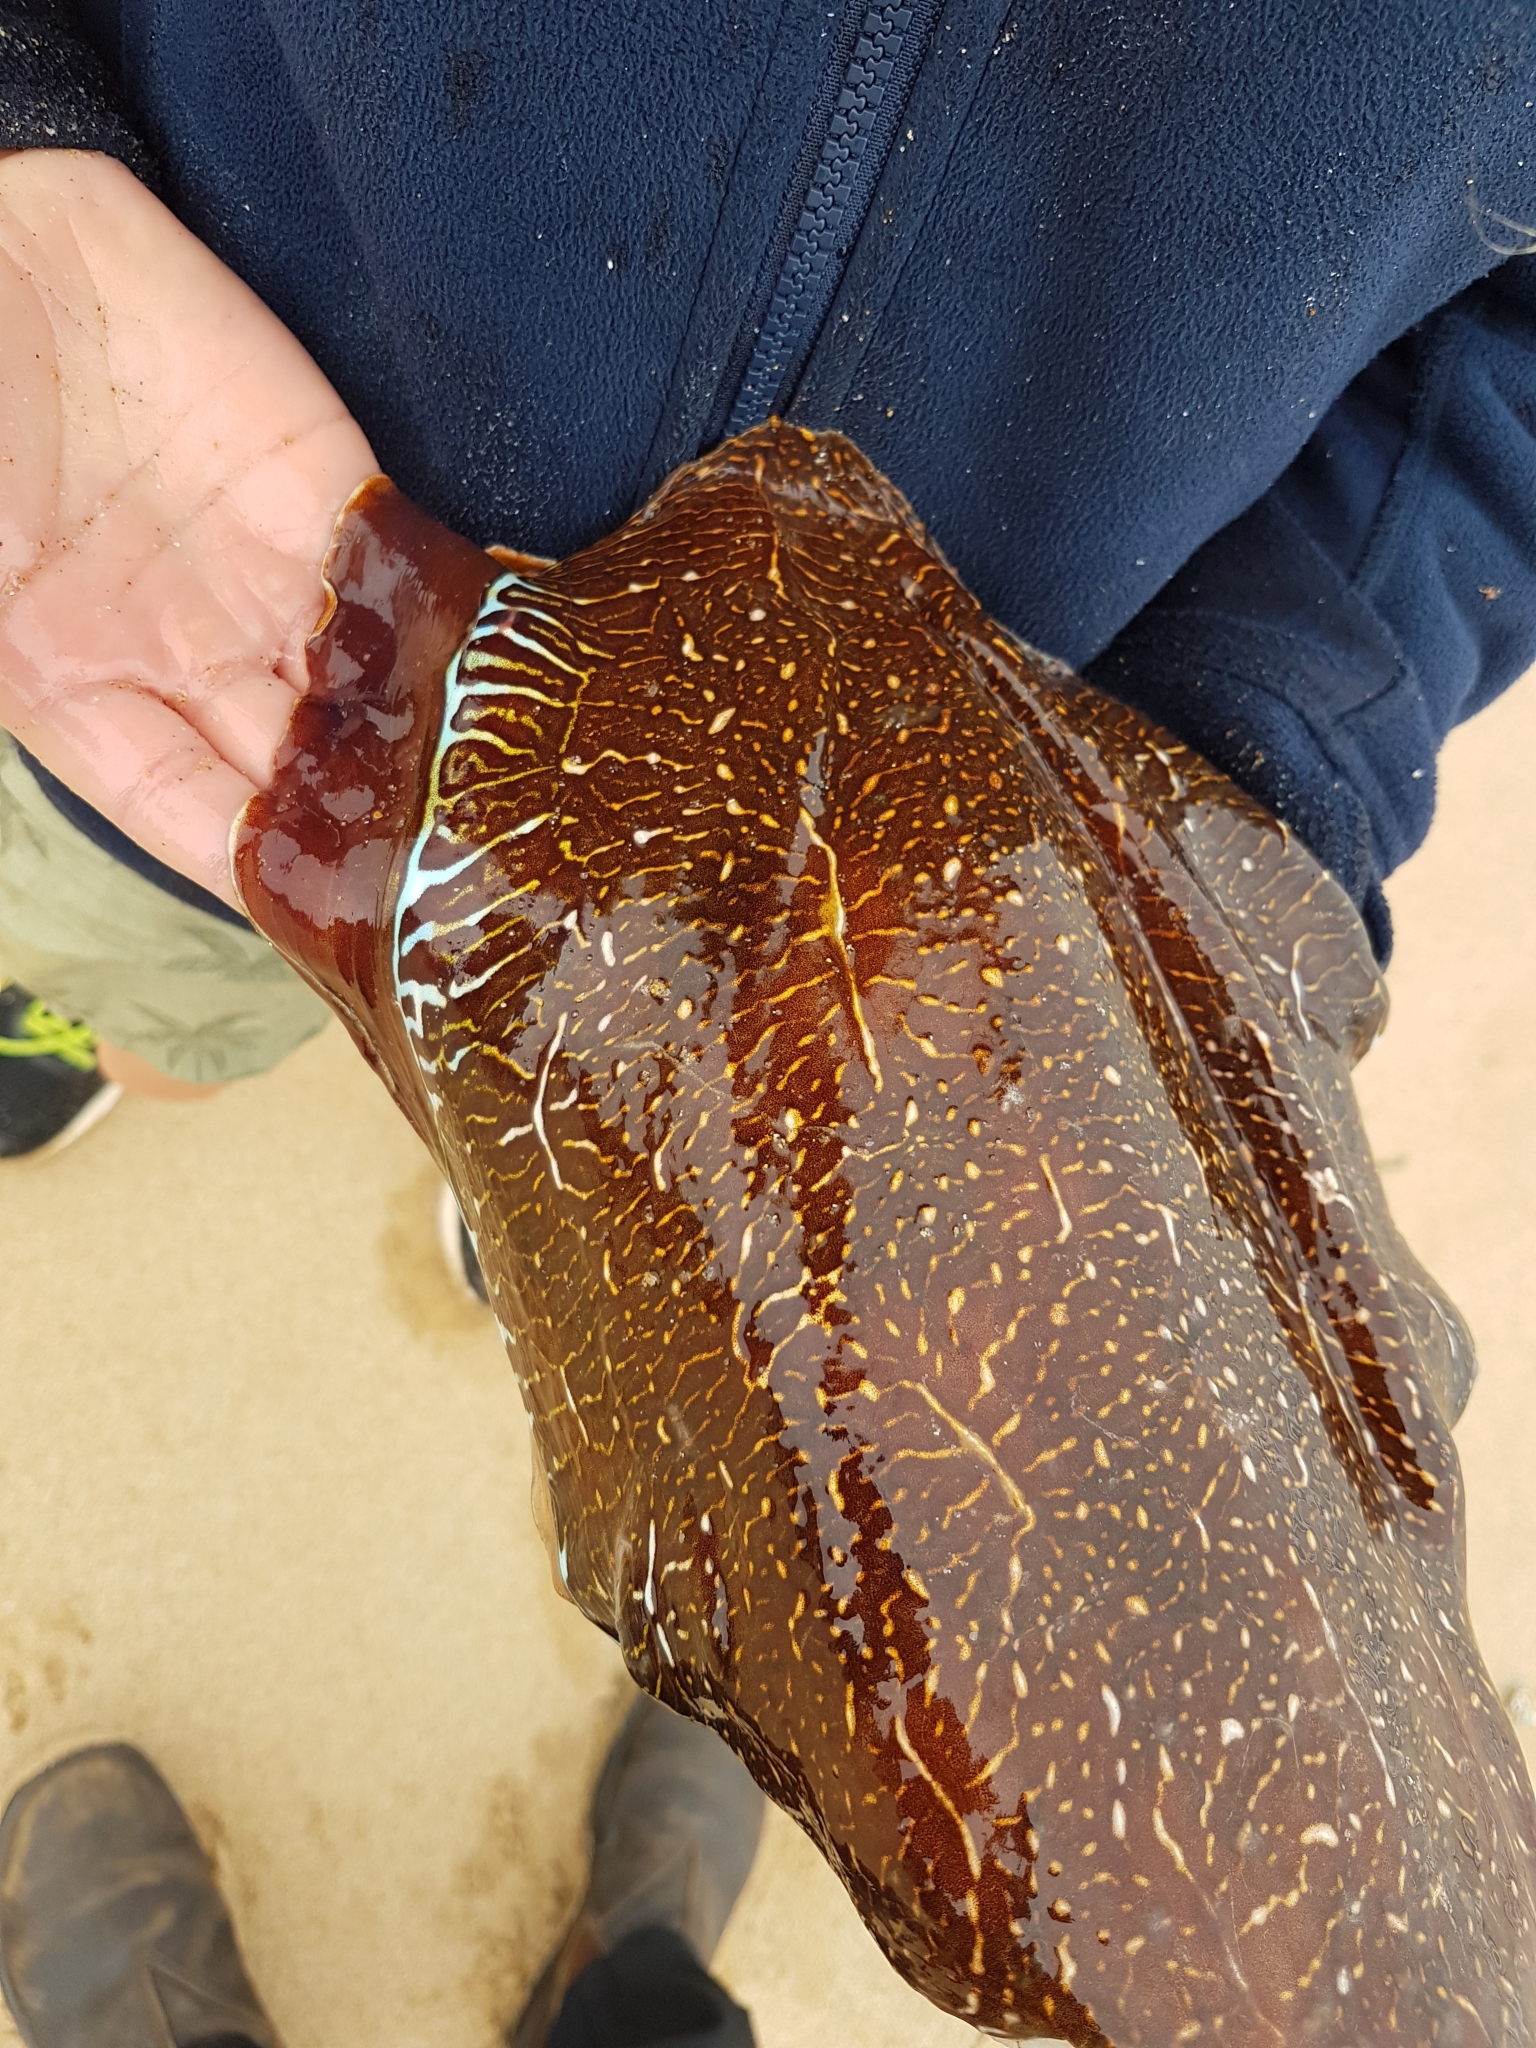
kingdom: Animalia
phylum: Mollusca
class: Cephalopoda
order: Sepiida
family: Sepiidae
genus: Ascarosepion
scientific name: Ascarosepion apama
